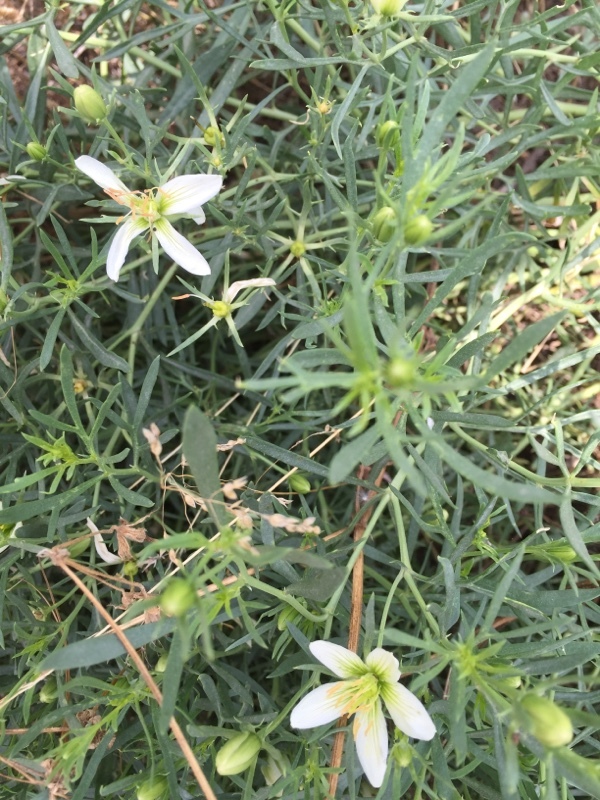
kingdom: Plantae
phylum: Tracheophyta
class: Magnoliopsida
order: Sapindales
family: Tetradiclidaceae
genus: Peganum
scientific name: Peganum harmala
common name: Harmal peganum
